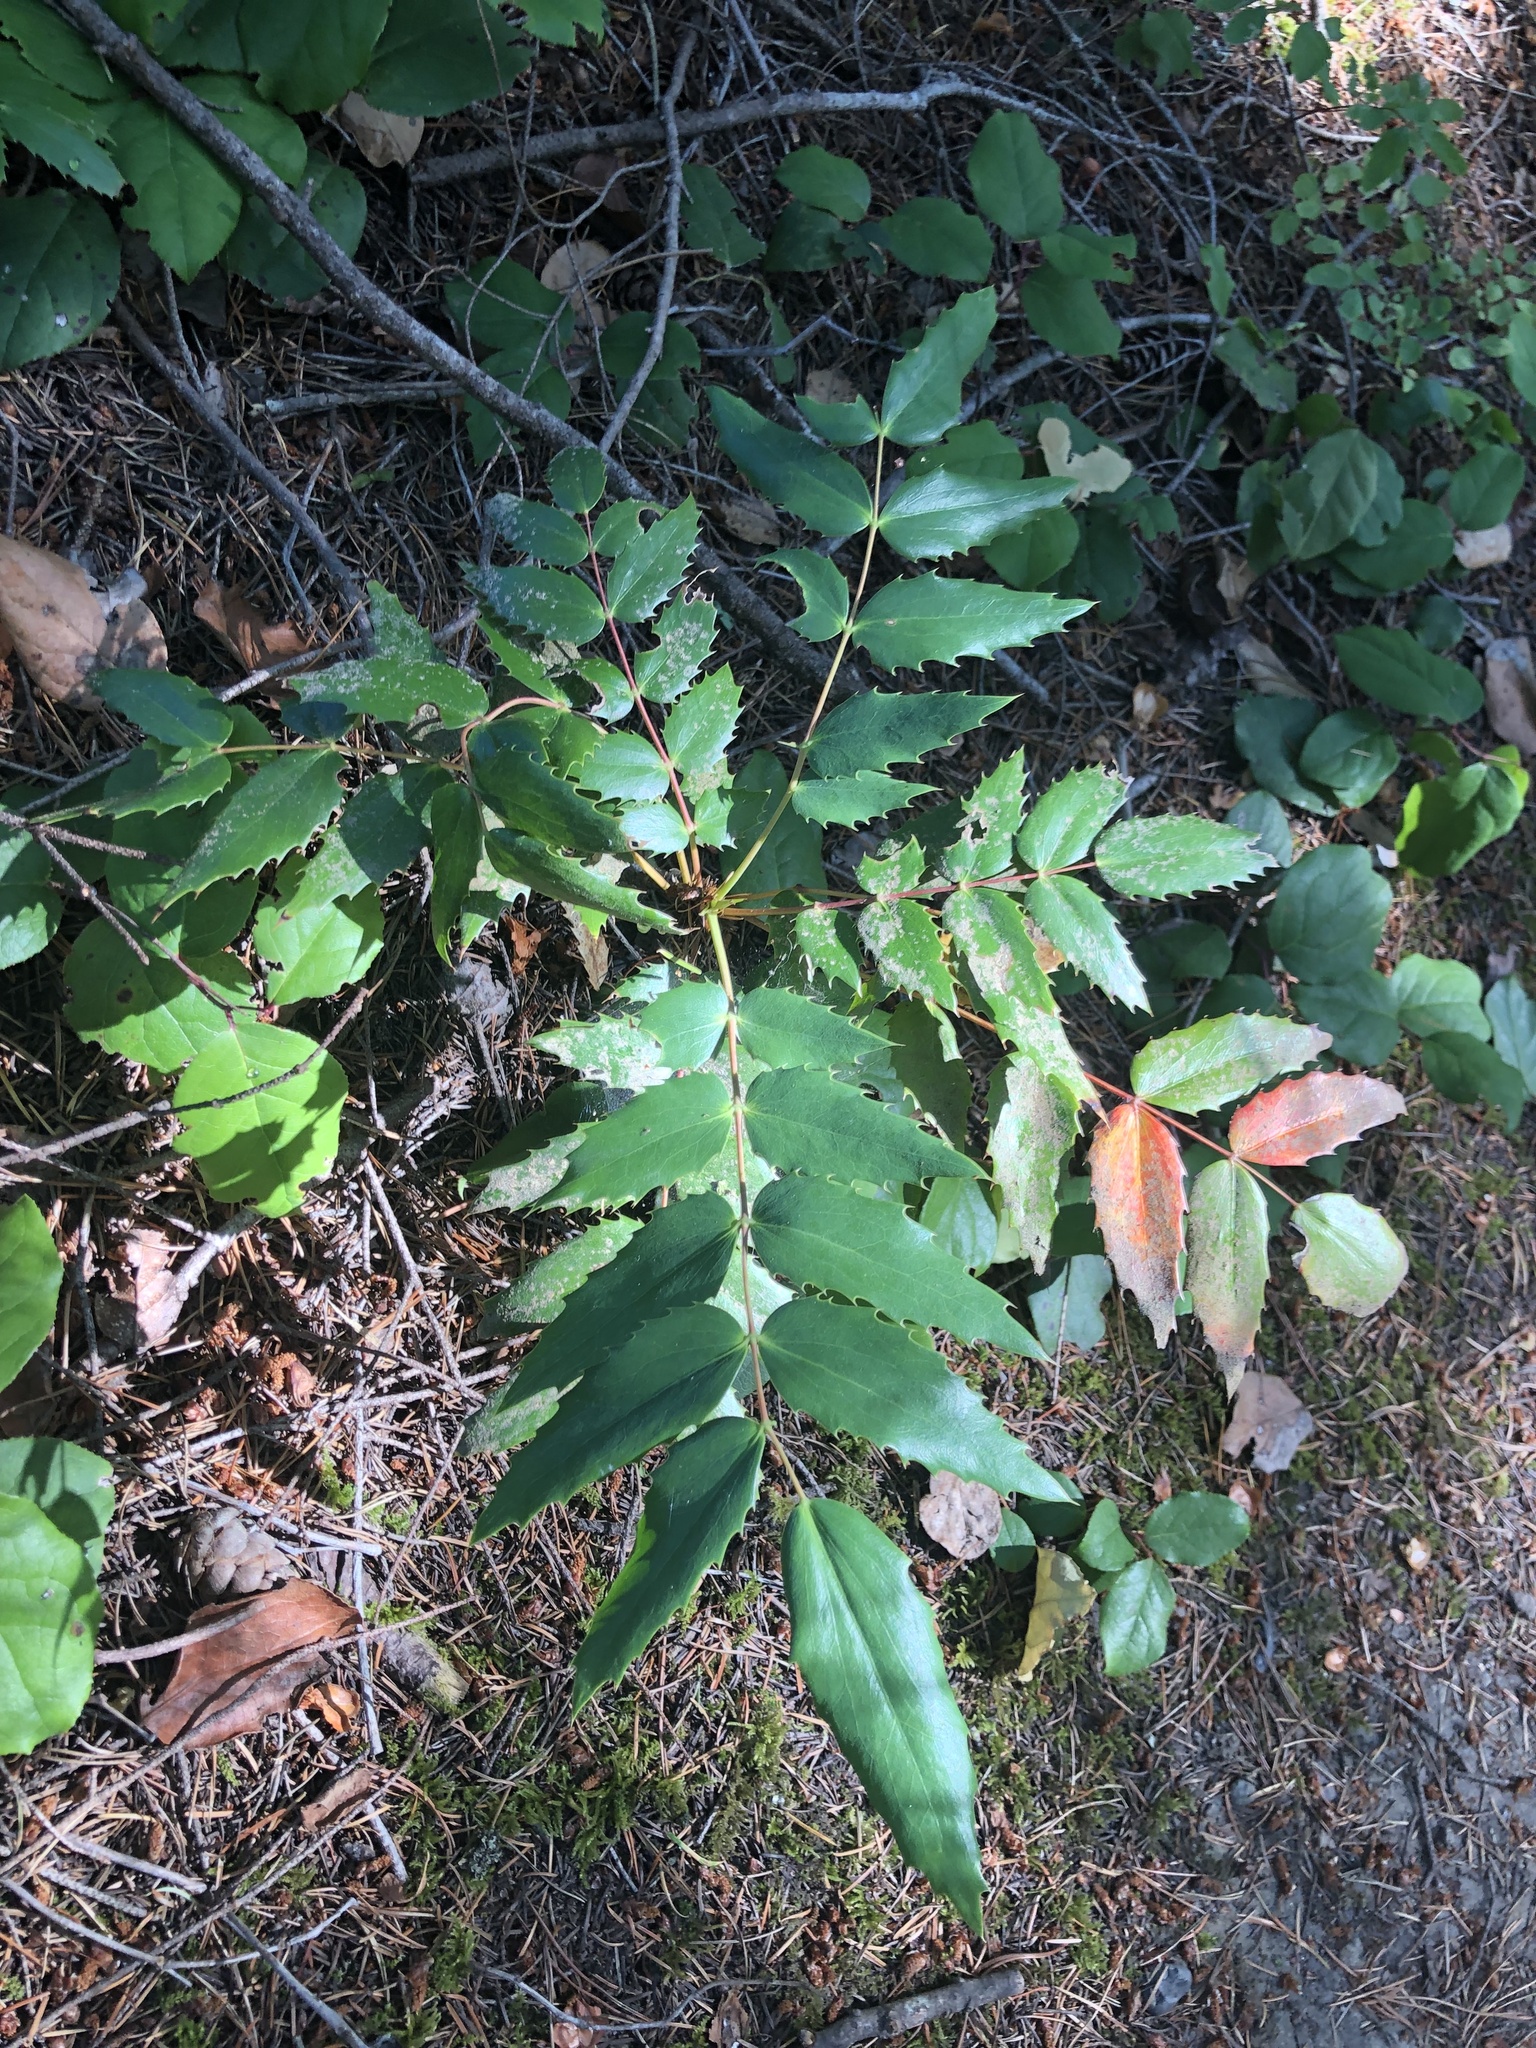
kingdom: Plantae
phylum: Tracheophyta
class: Magnoliopsida
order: Ranunculales
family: Berberidaceae
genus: Mahonia
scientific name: Mahonia nervosa
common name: Cascade oregon-grape
